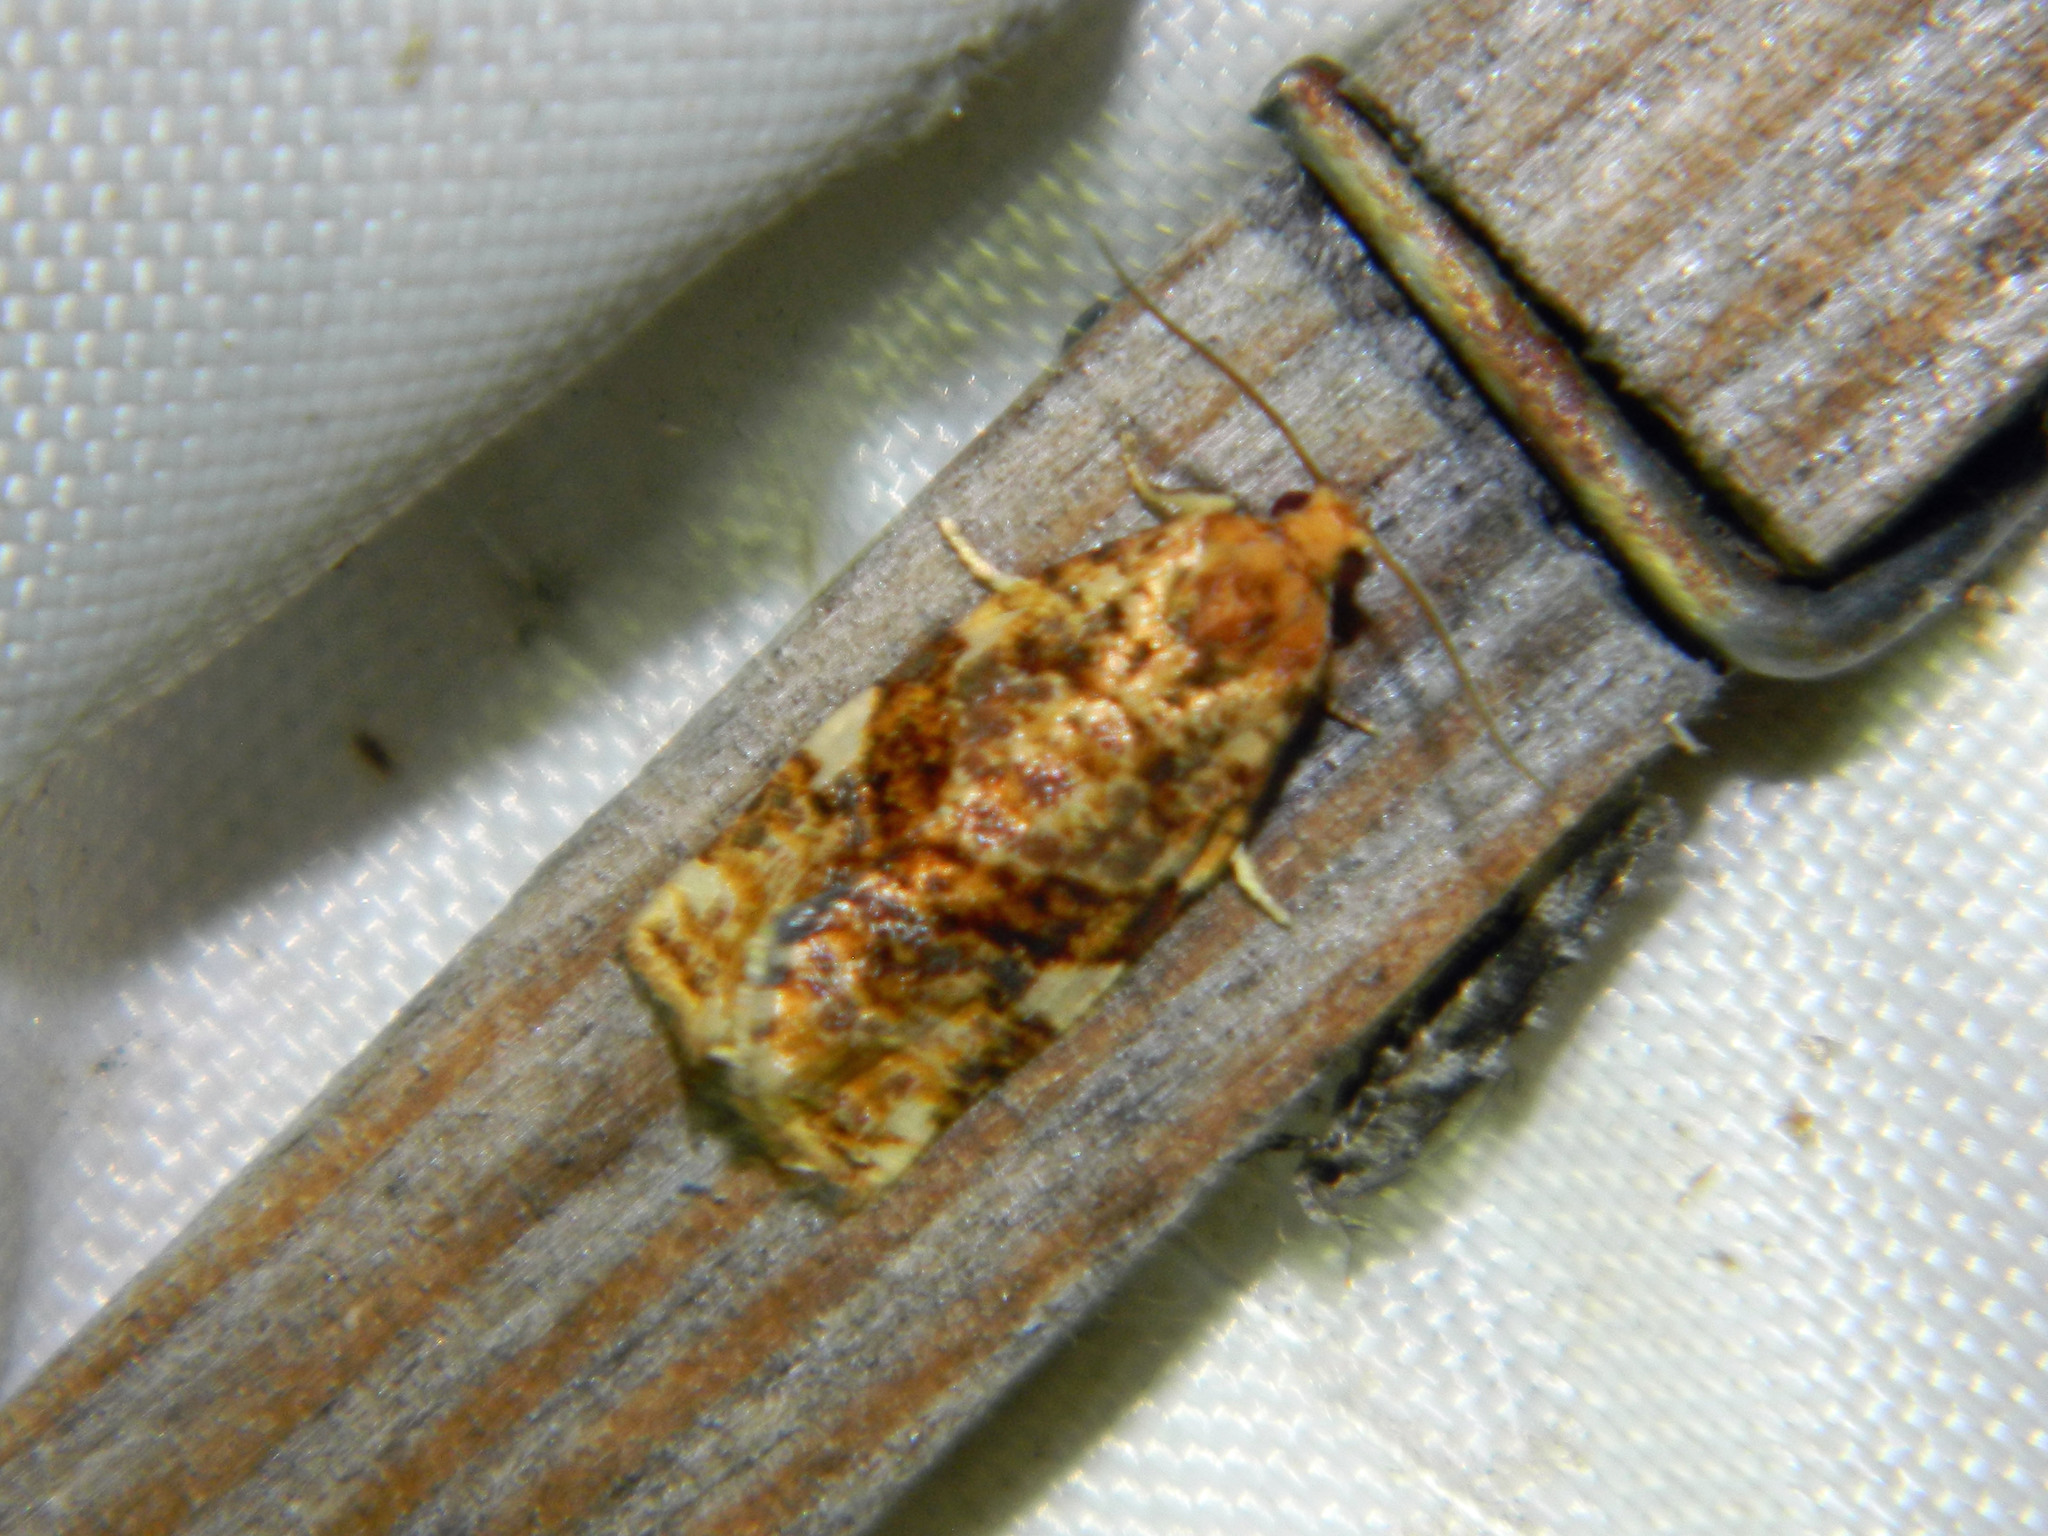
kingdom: Animalia
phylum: Arthropoda
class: Insecta
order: Lepidoptera
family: Tortricidae
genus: Archips
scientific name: Archips argyrospila
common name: Fruit-tree leafroller moth
